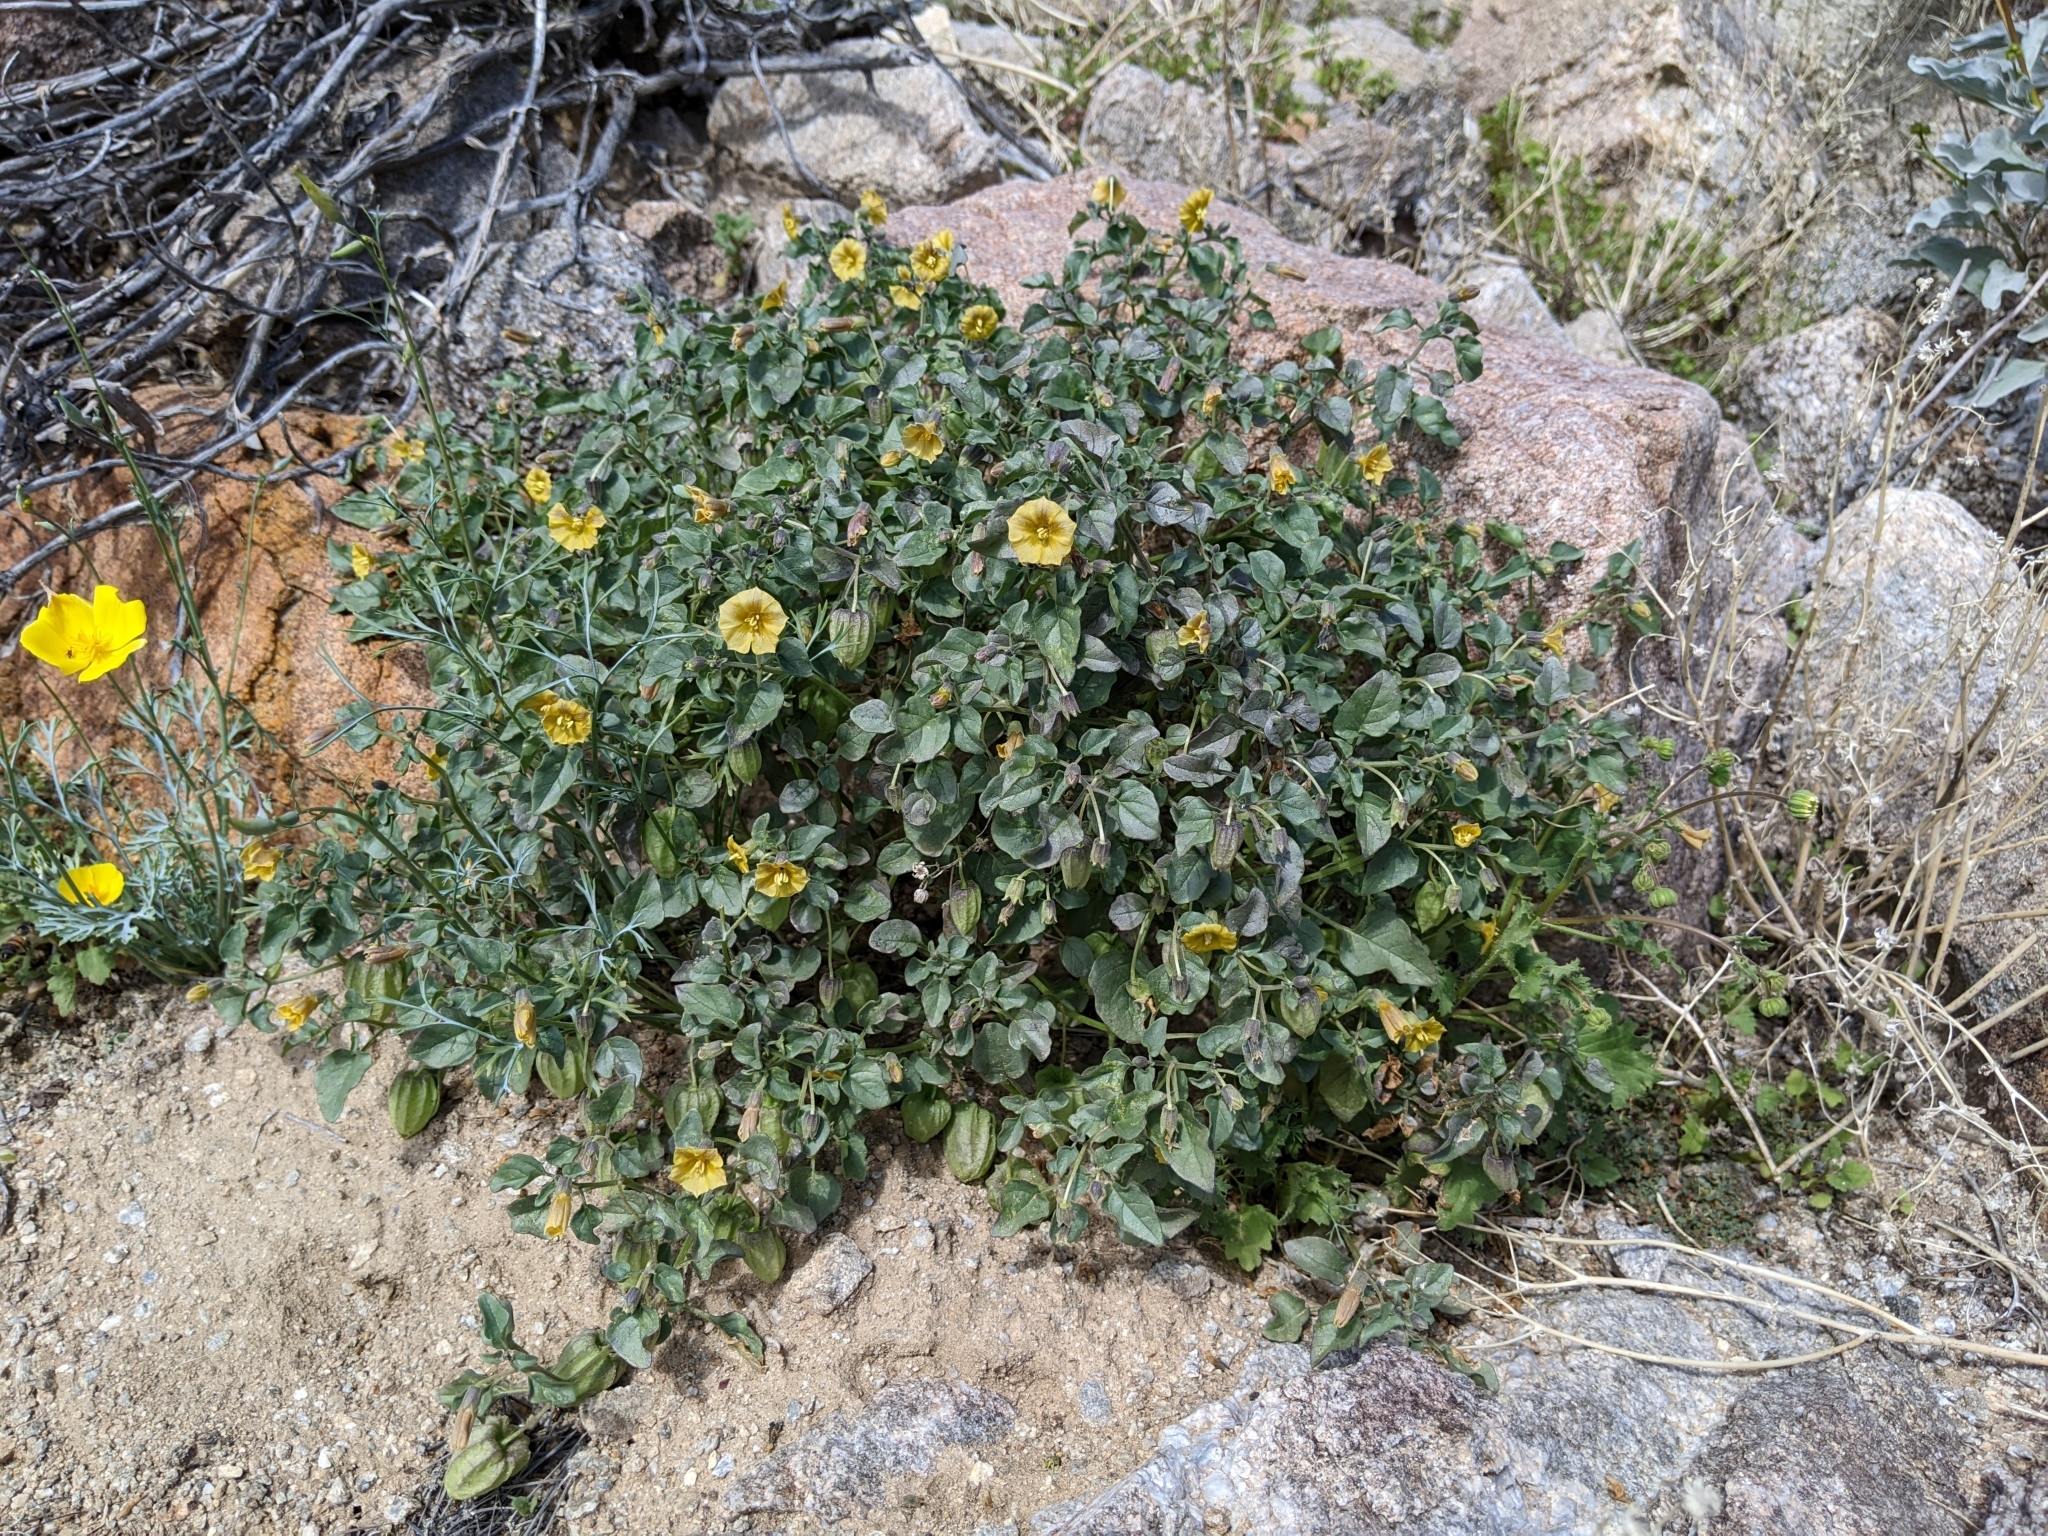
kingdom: Plantae
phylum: Tracheophyta
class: Magnoliopsida
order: Solanales
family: Solanaceae
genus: Physalis
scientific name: Physalis crassifolia
